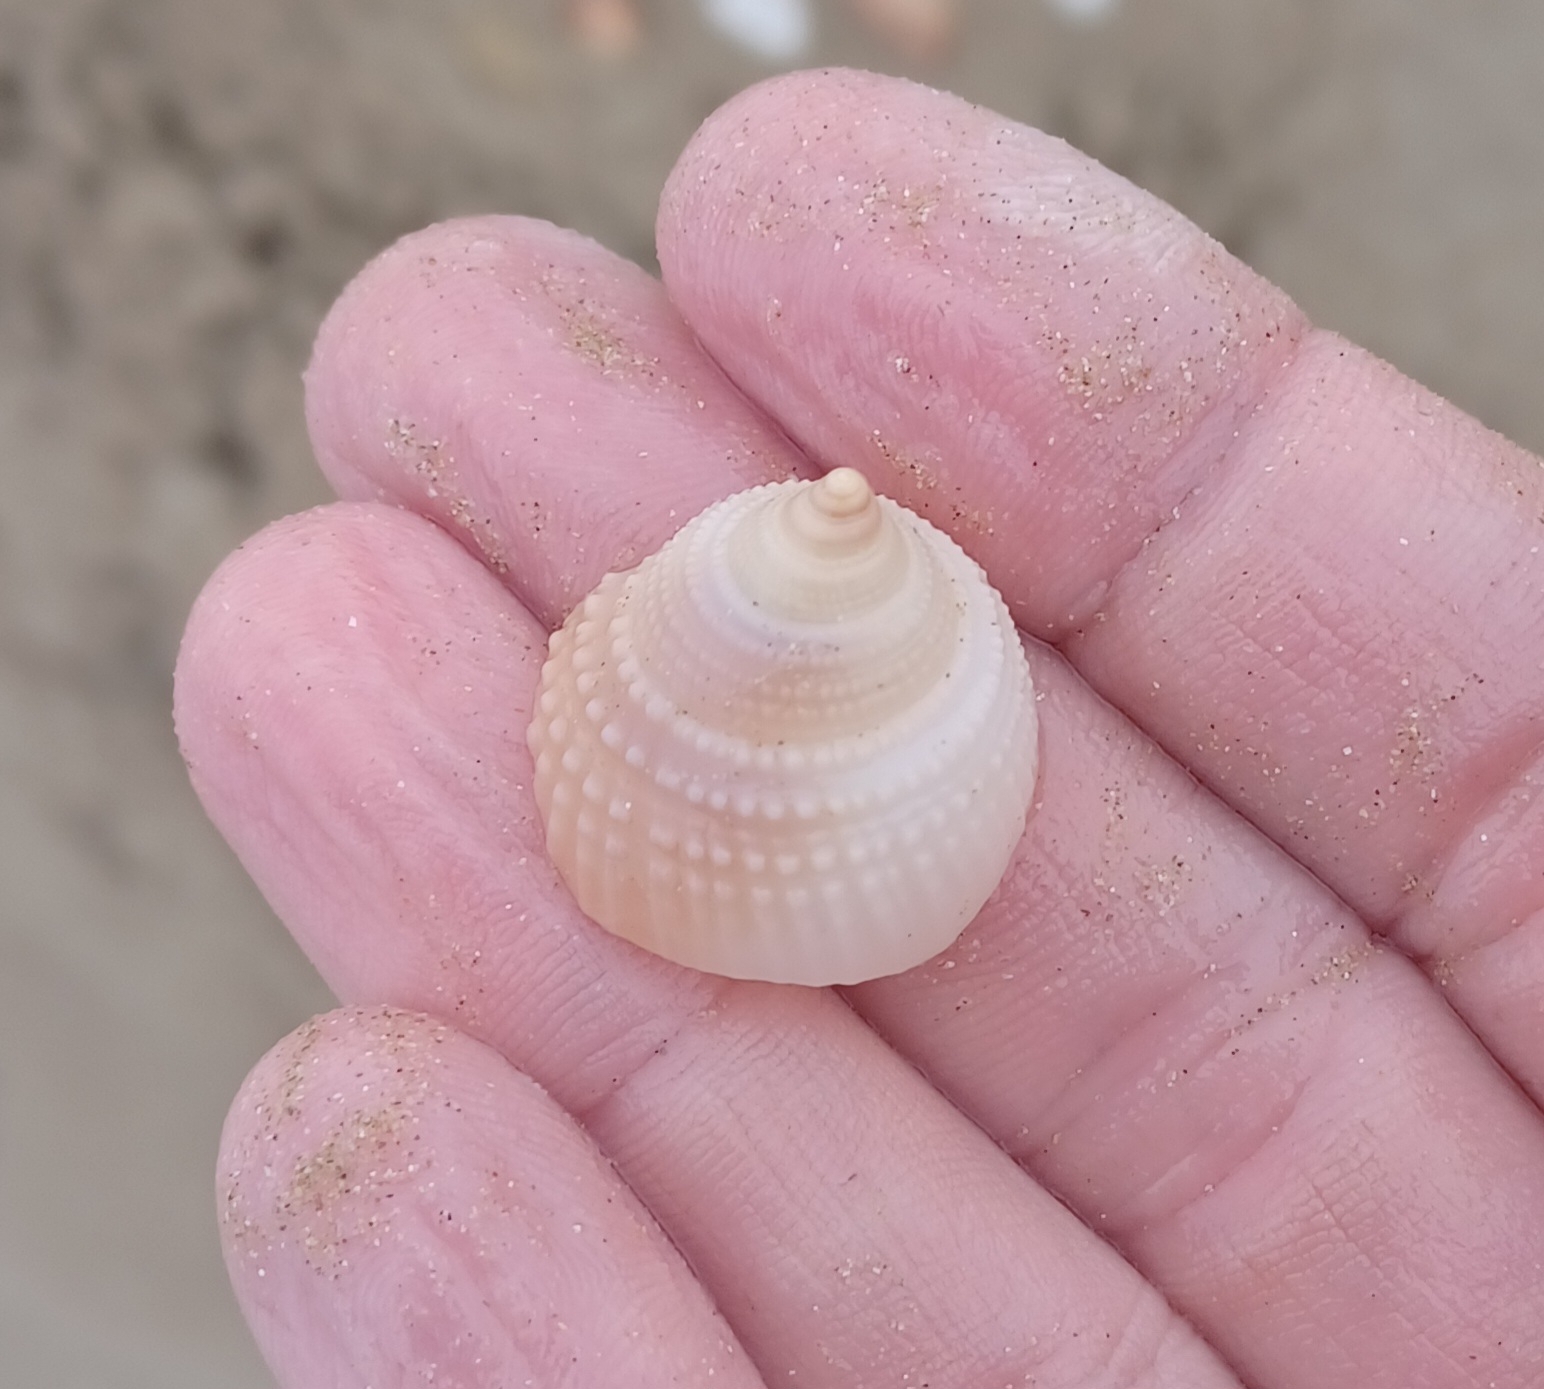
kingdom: Animalia
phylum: Mollusca
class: Gastropoda
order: Littorinimorpha
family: Cassidae
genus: Antephalium
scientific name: Antephalium
